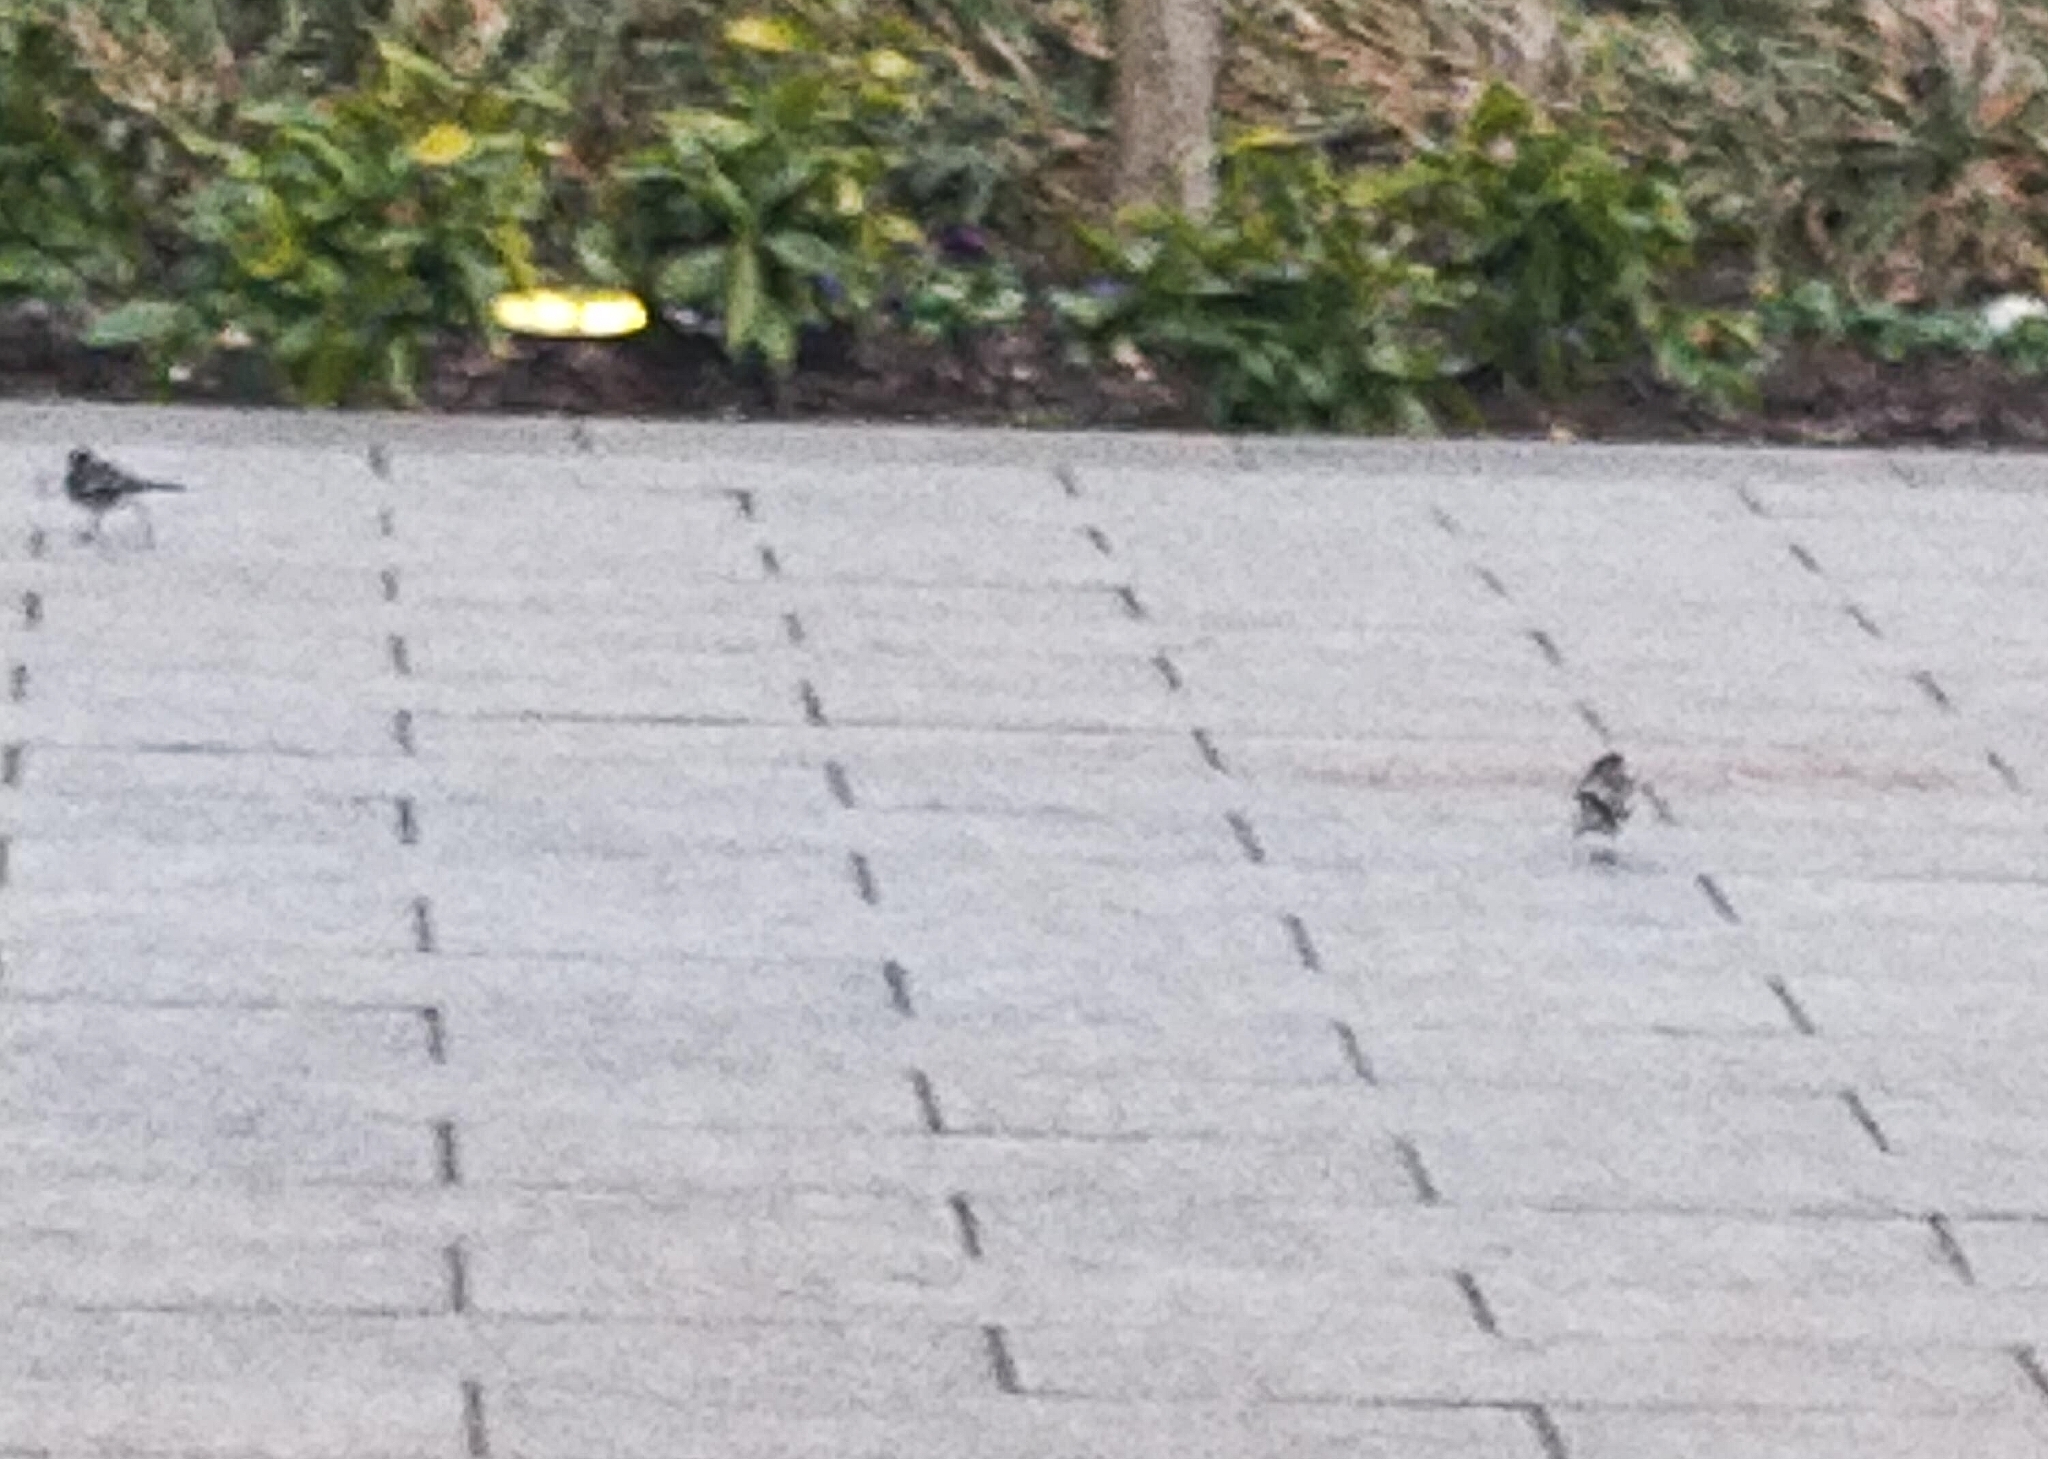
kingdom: Animalia
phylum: Chordata
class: Aves
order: Passeriformes
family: Motacillidae
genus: Motacilla
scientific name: Motacilla alba
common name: White wagtail
